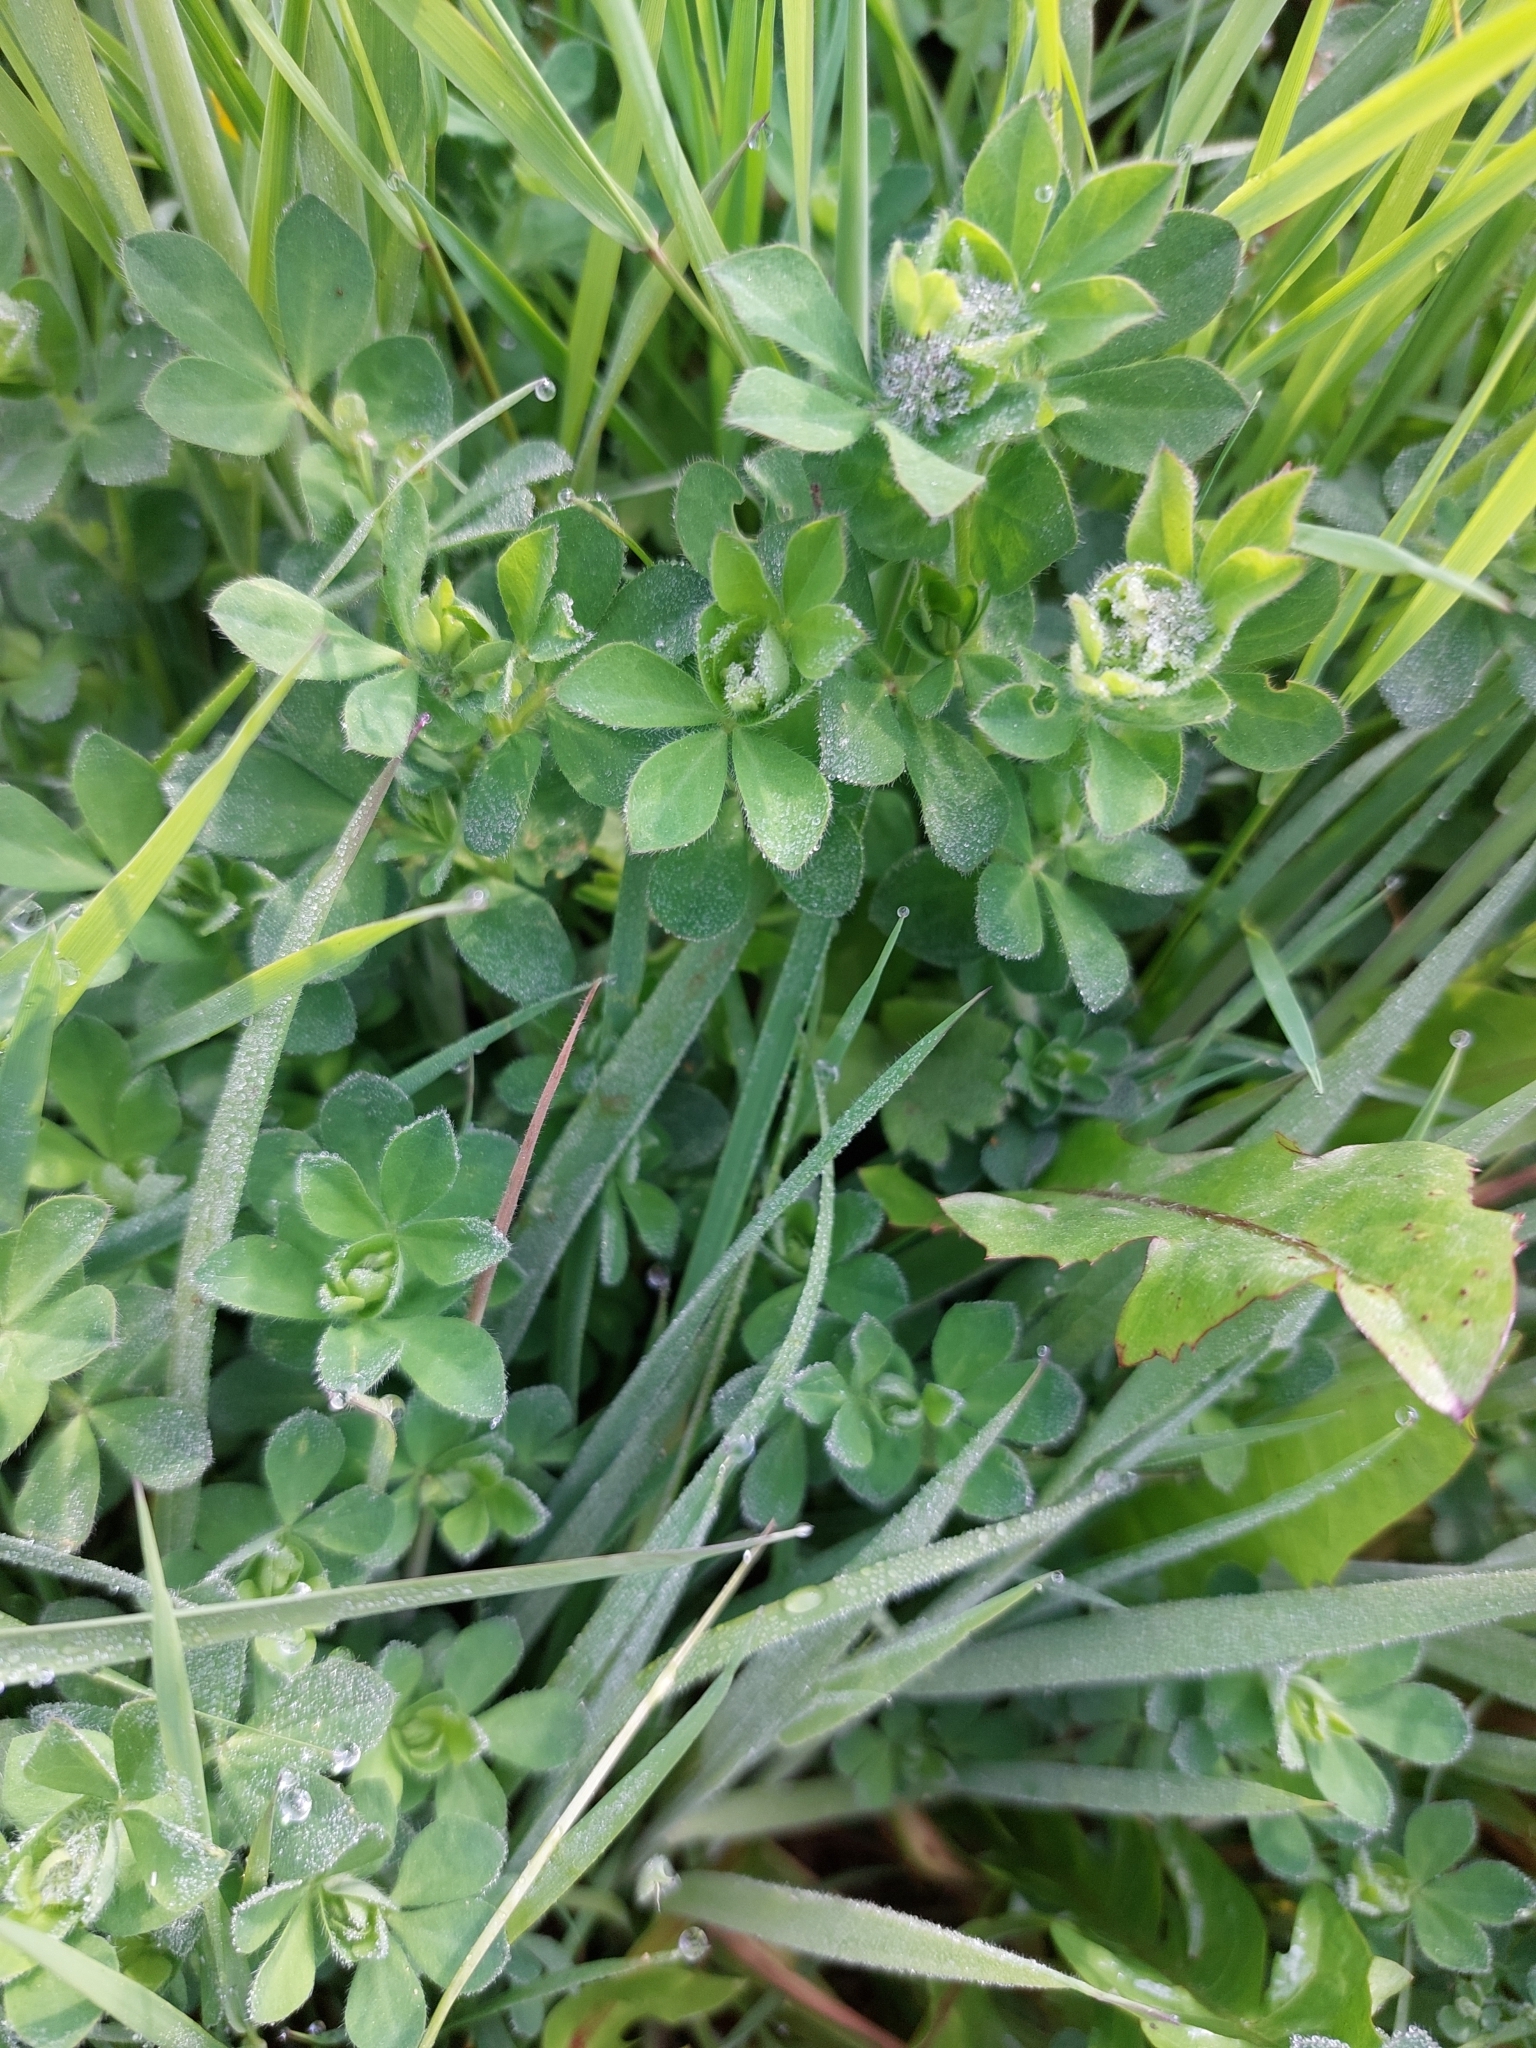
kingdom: Plantae
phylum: Tracheophyta
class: Magnoliopsida
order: Fabales
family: Fabaceae
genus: Lotus
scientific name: Lotus pedunculatus
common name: Greater birdsfoot-trefoil
